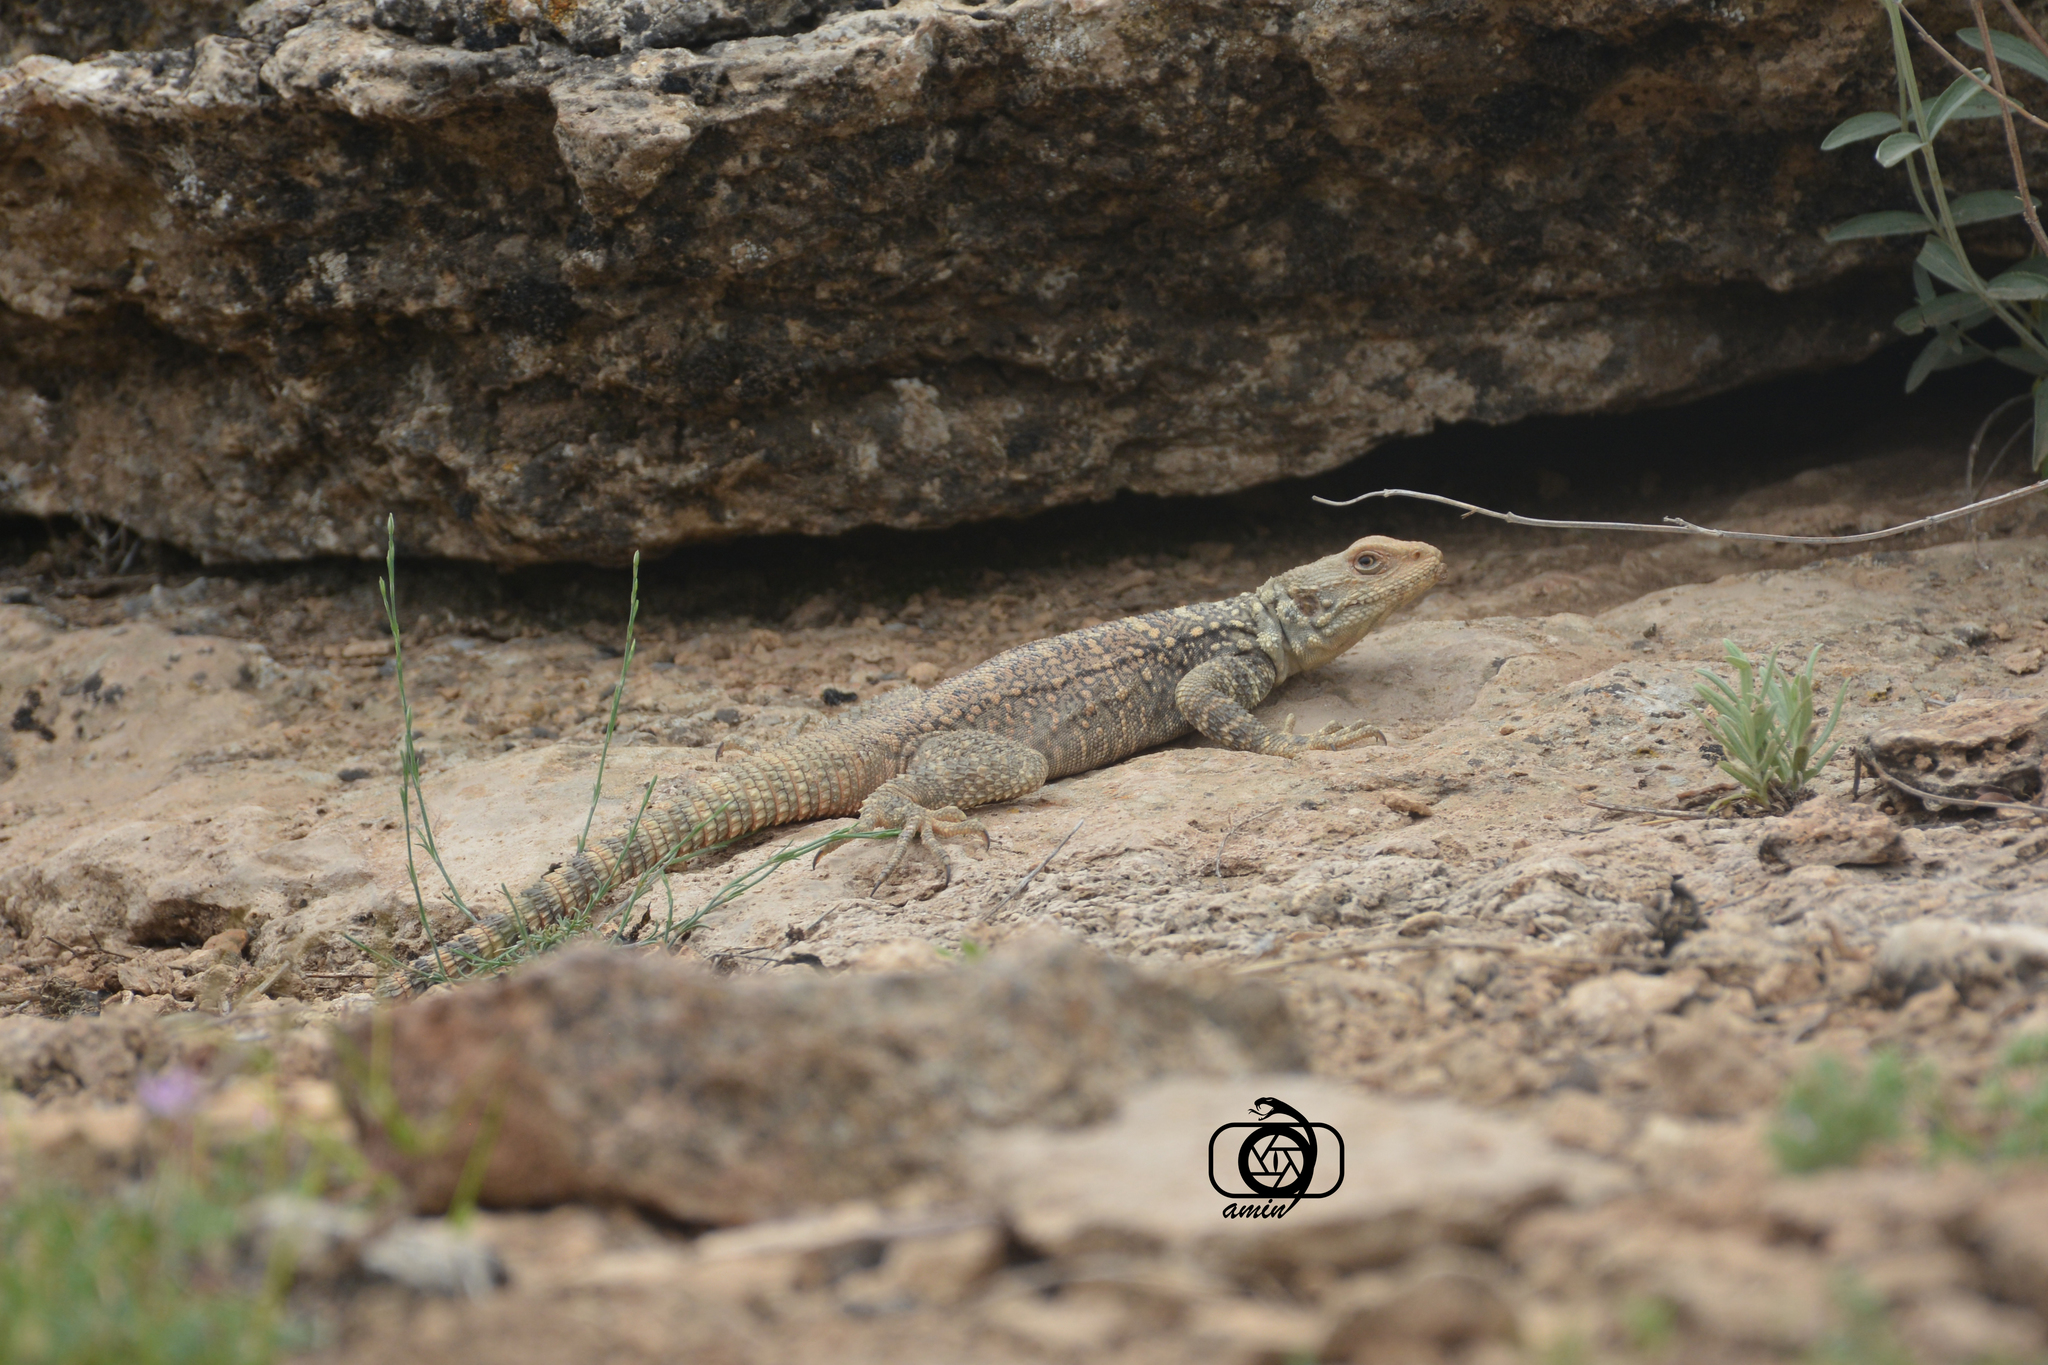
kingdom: Animalia
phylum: Chordata
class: Squamata
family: Agamidae
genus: Paralaudakia
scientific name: Paralaudakia caucasia
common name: Caucasian agama
